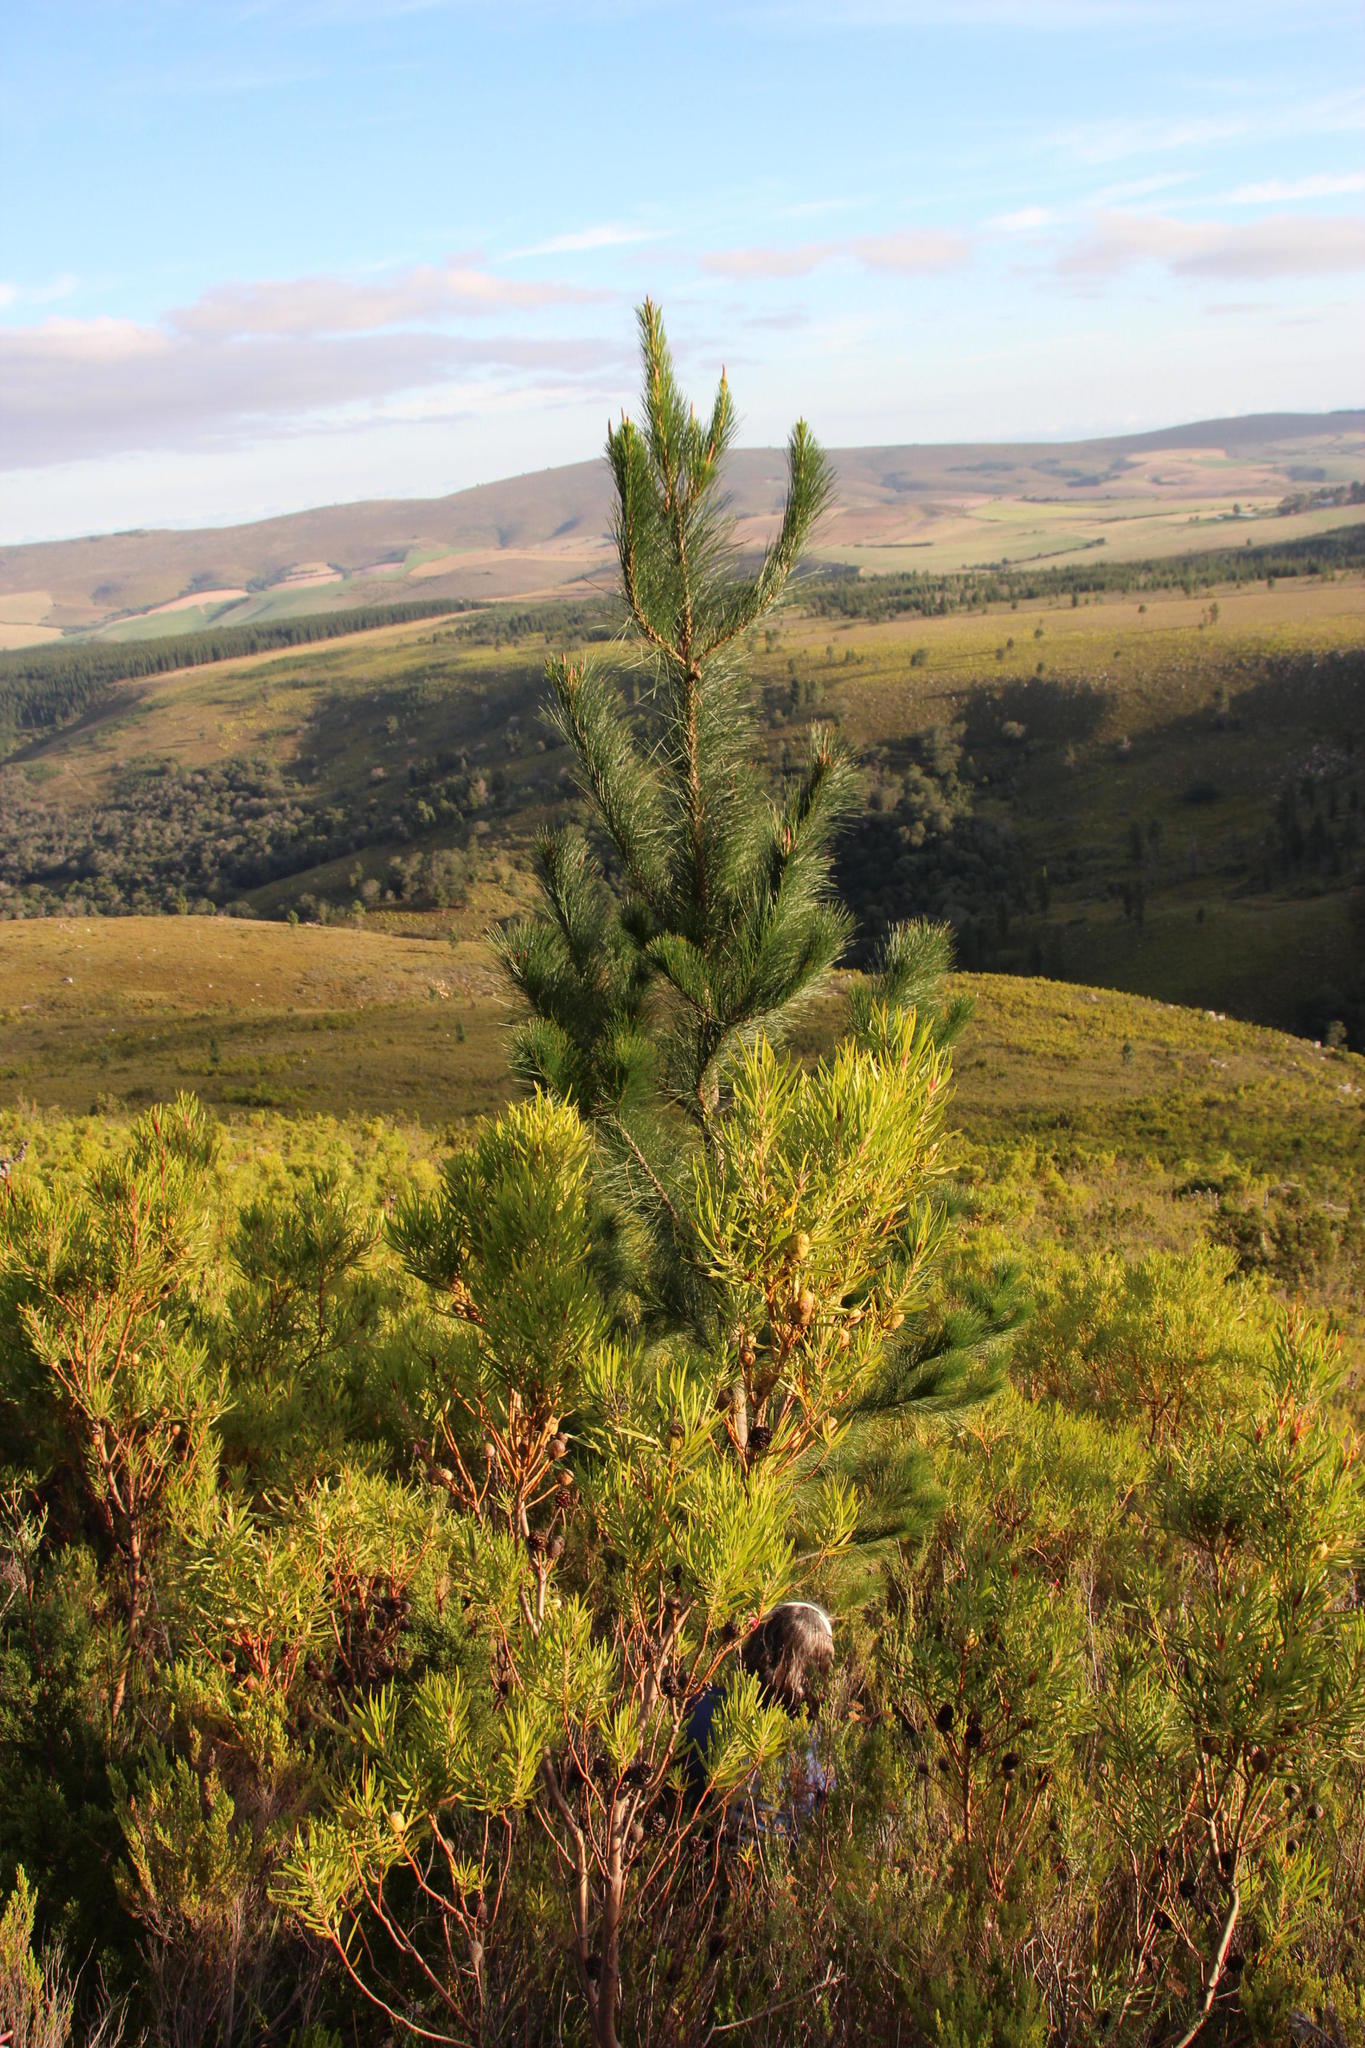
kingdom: Plantae
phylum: Tracheophyta
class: Pinopsida
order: Pinales
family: Pinaceae
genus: Pinus
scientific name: Pinus radiata
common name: Monterey pine
